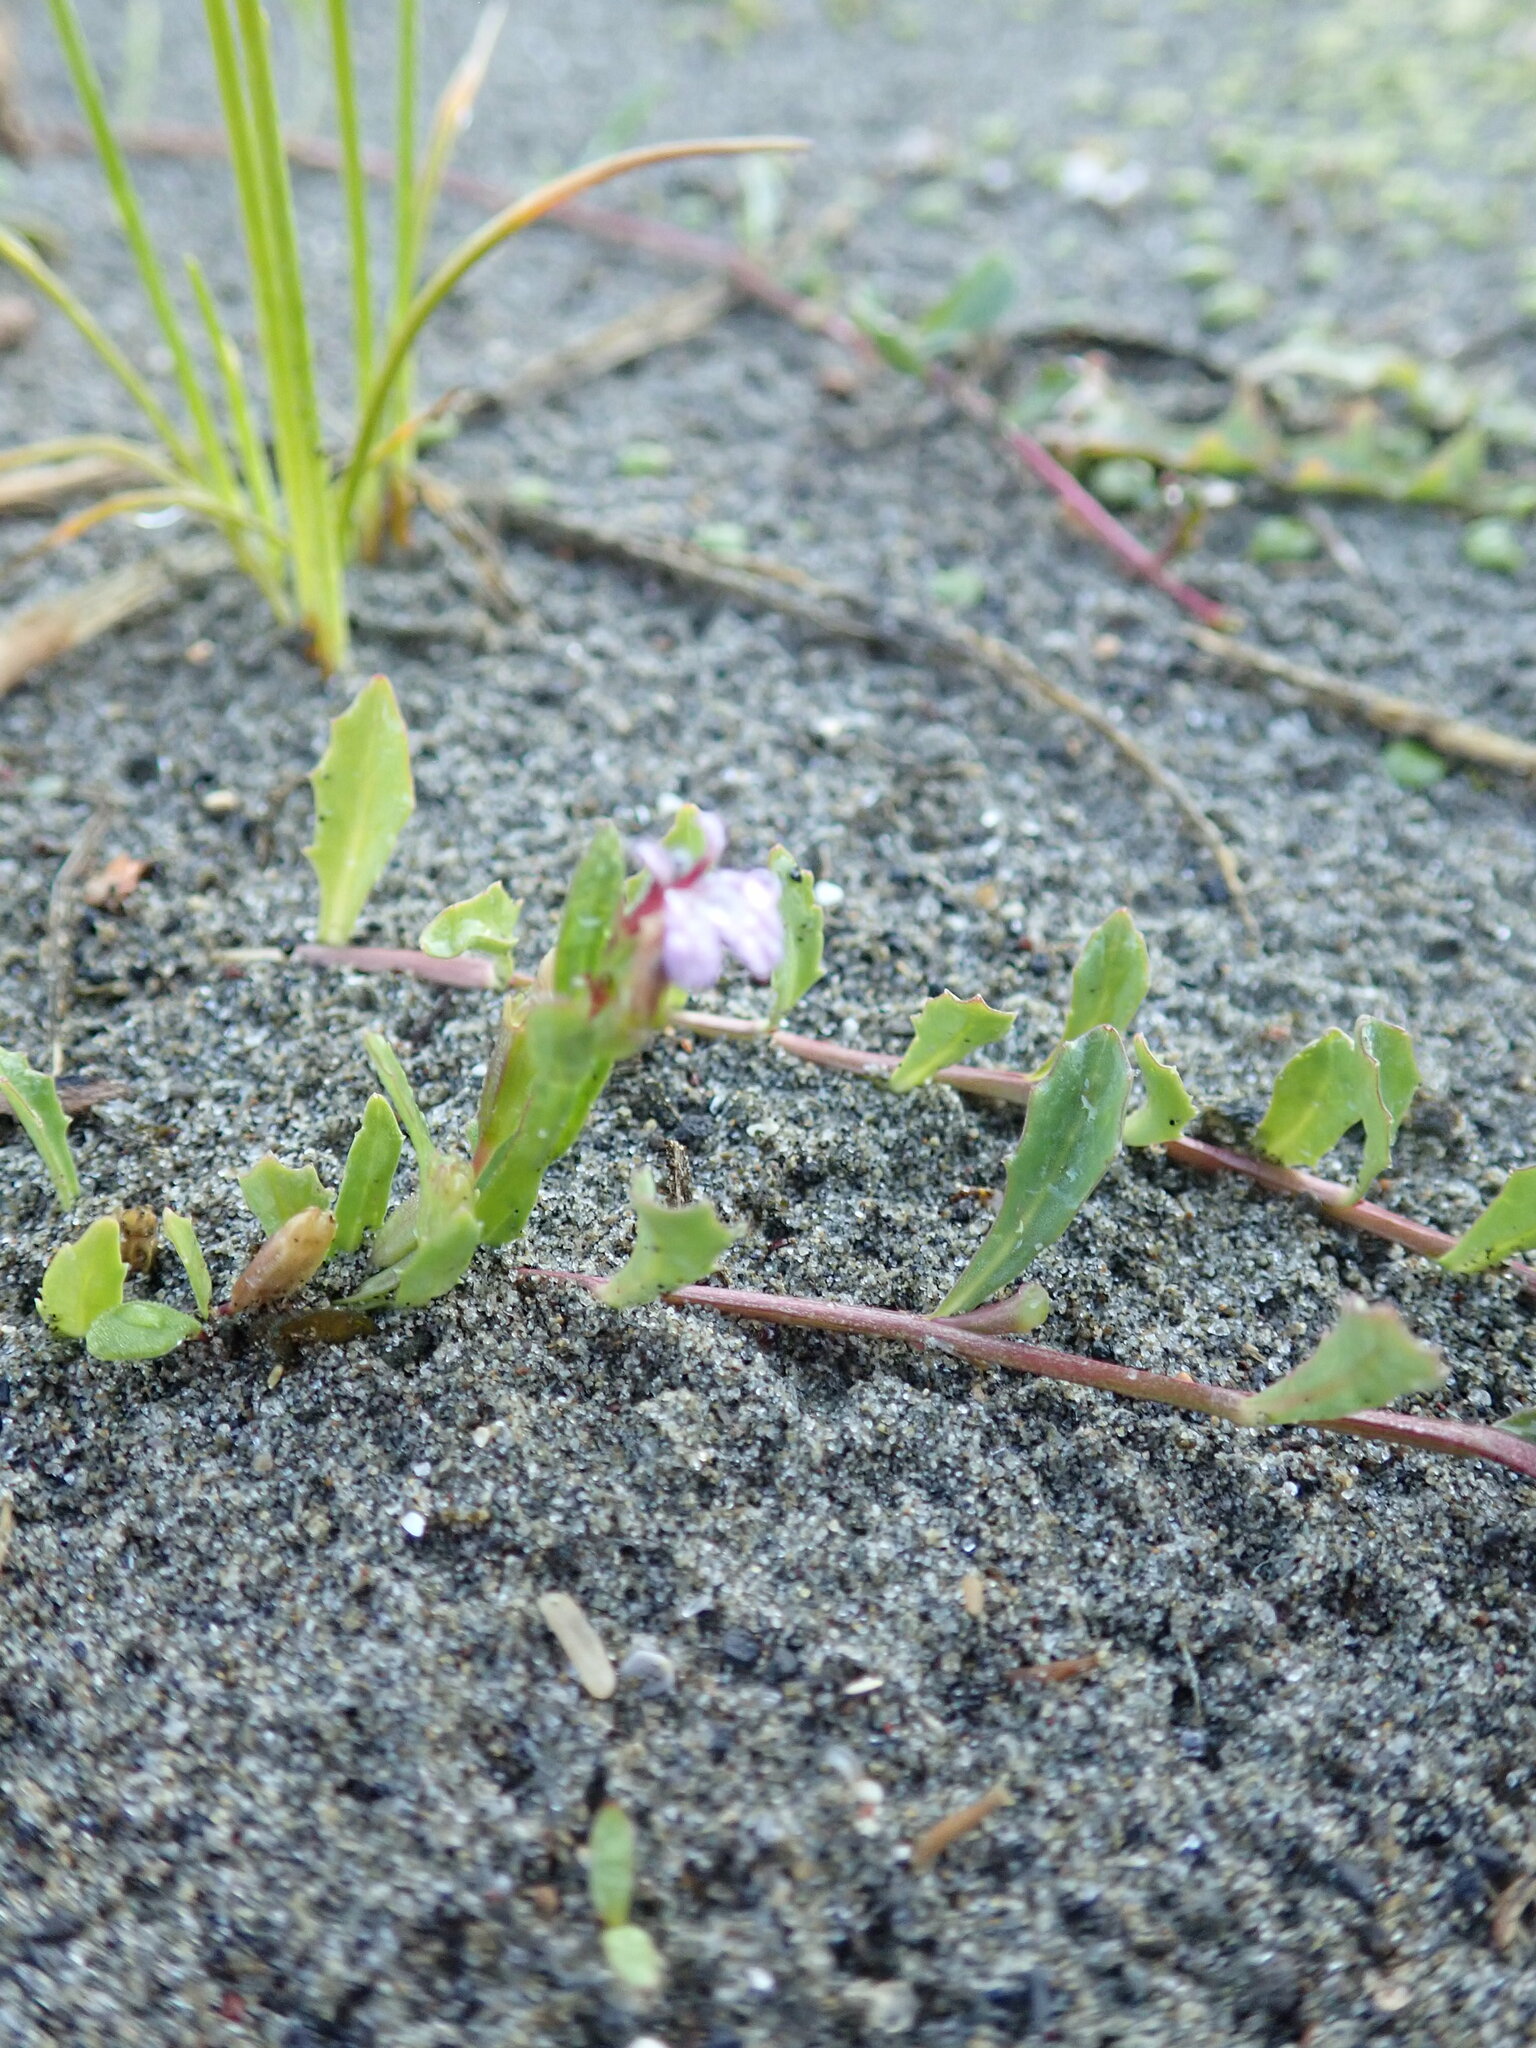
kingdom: Plantae
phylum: Tracheophyta
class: Magnoliopsida
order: Asterales
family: Campanulaceae
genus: Lobelia
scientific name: Lobelia anceps
